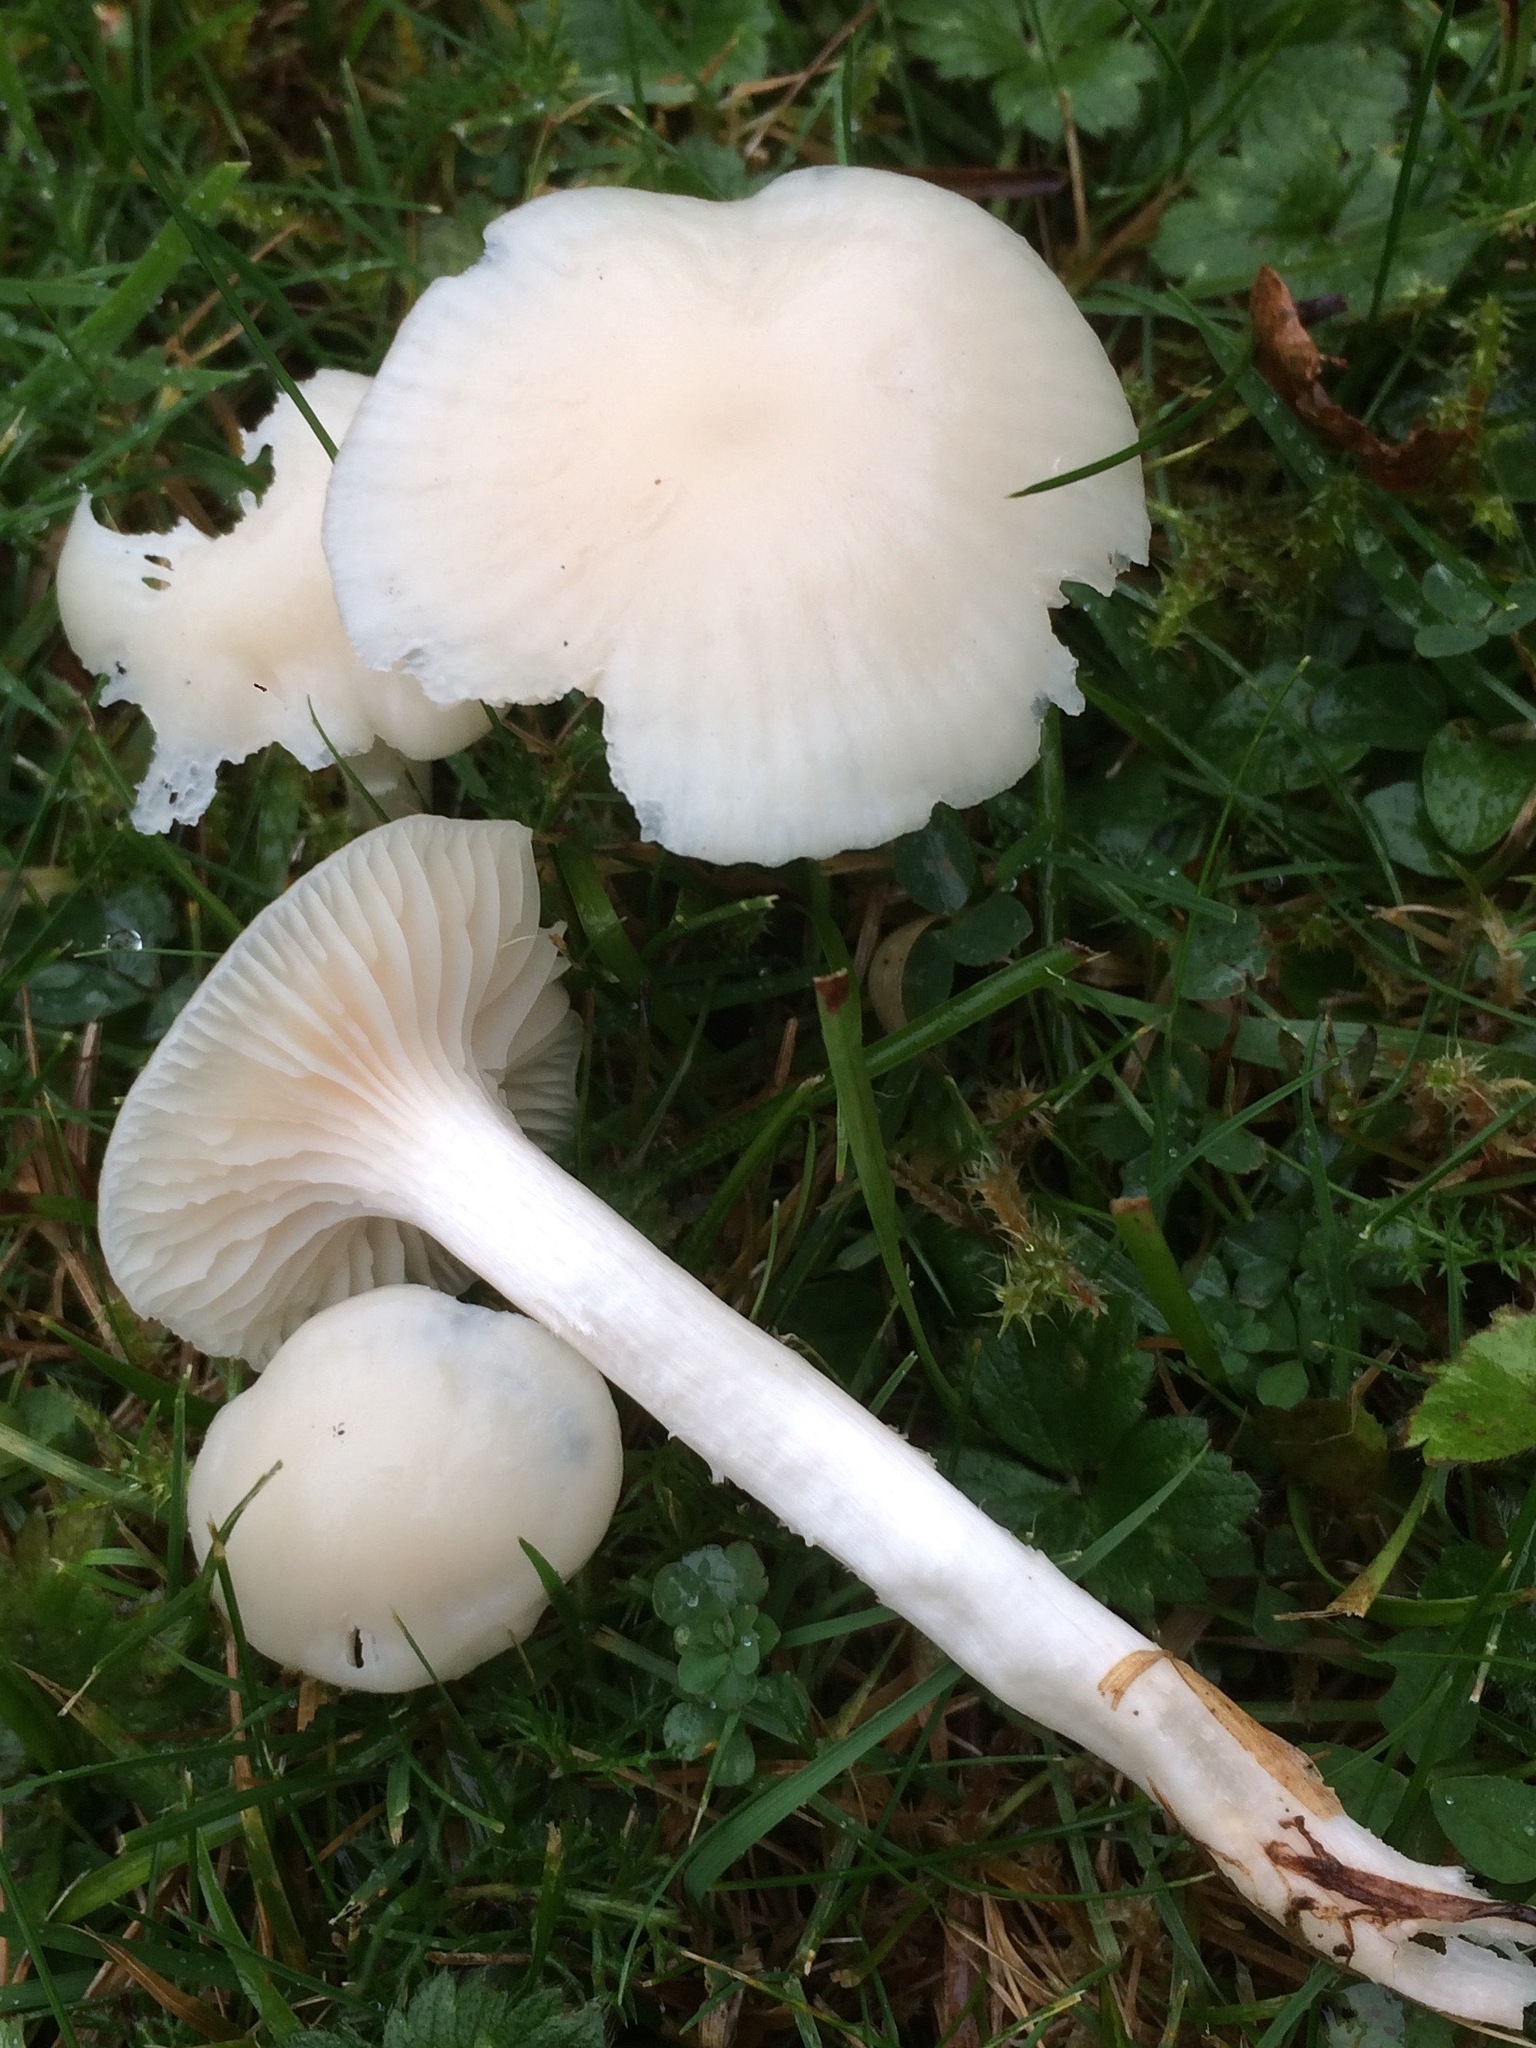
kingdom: Fungi
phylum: Basidiomycota
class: Agaricomycetes
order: Agaricales
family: Hygrophoraceae
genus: Cuphophyllus
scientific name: Cuphophyllus virgineus
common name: Snowy waxcap
